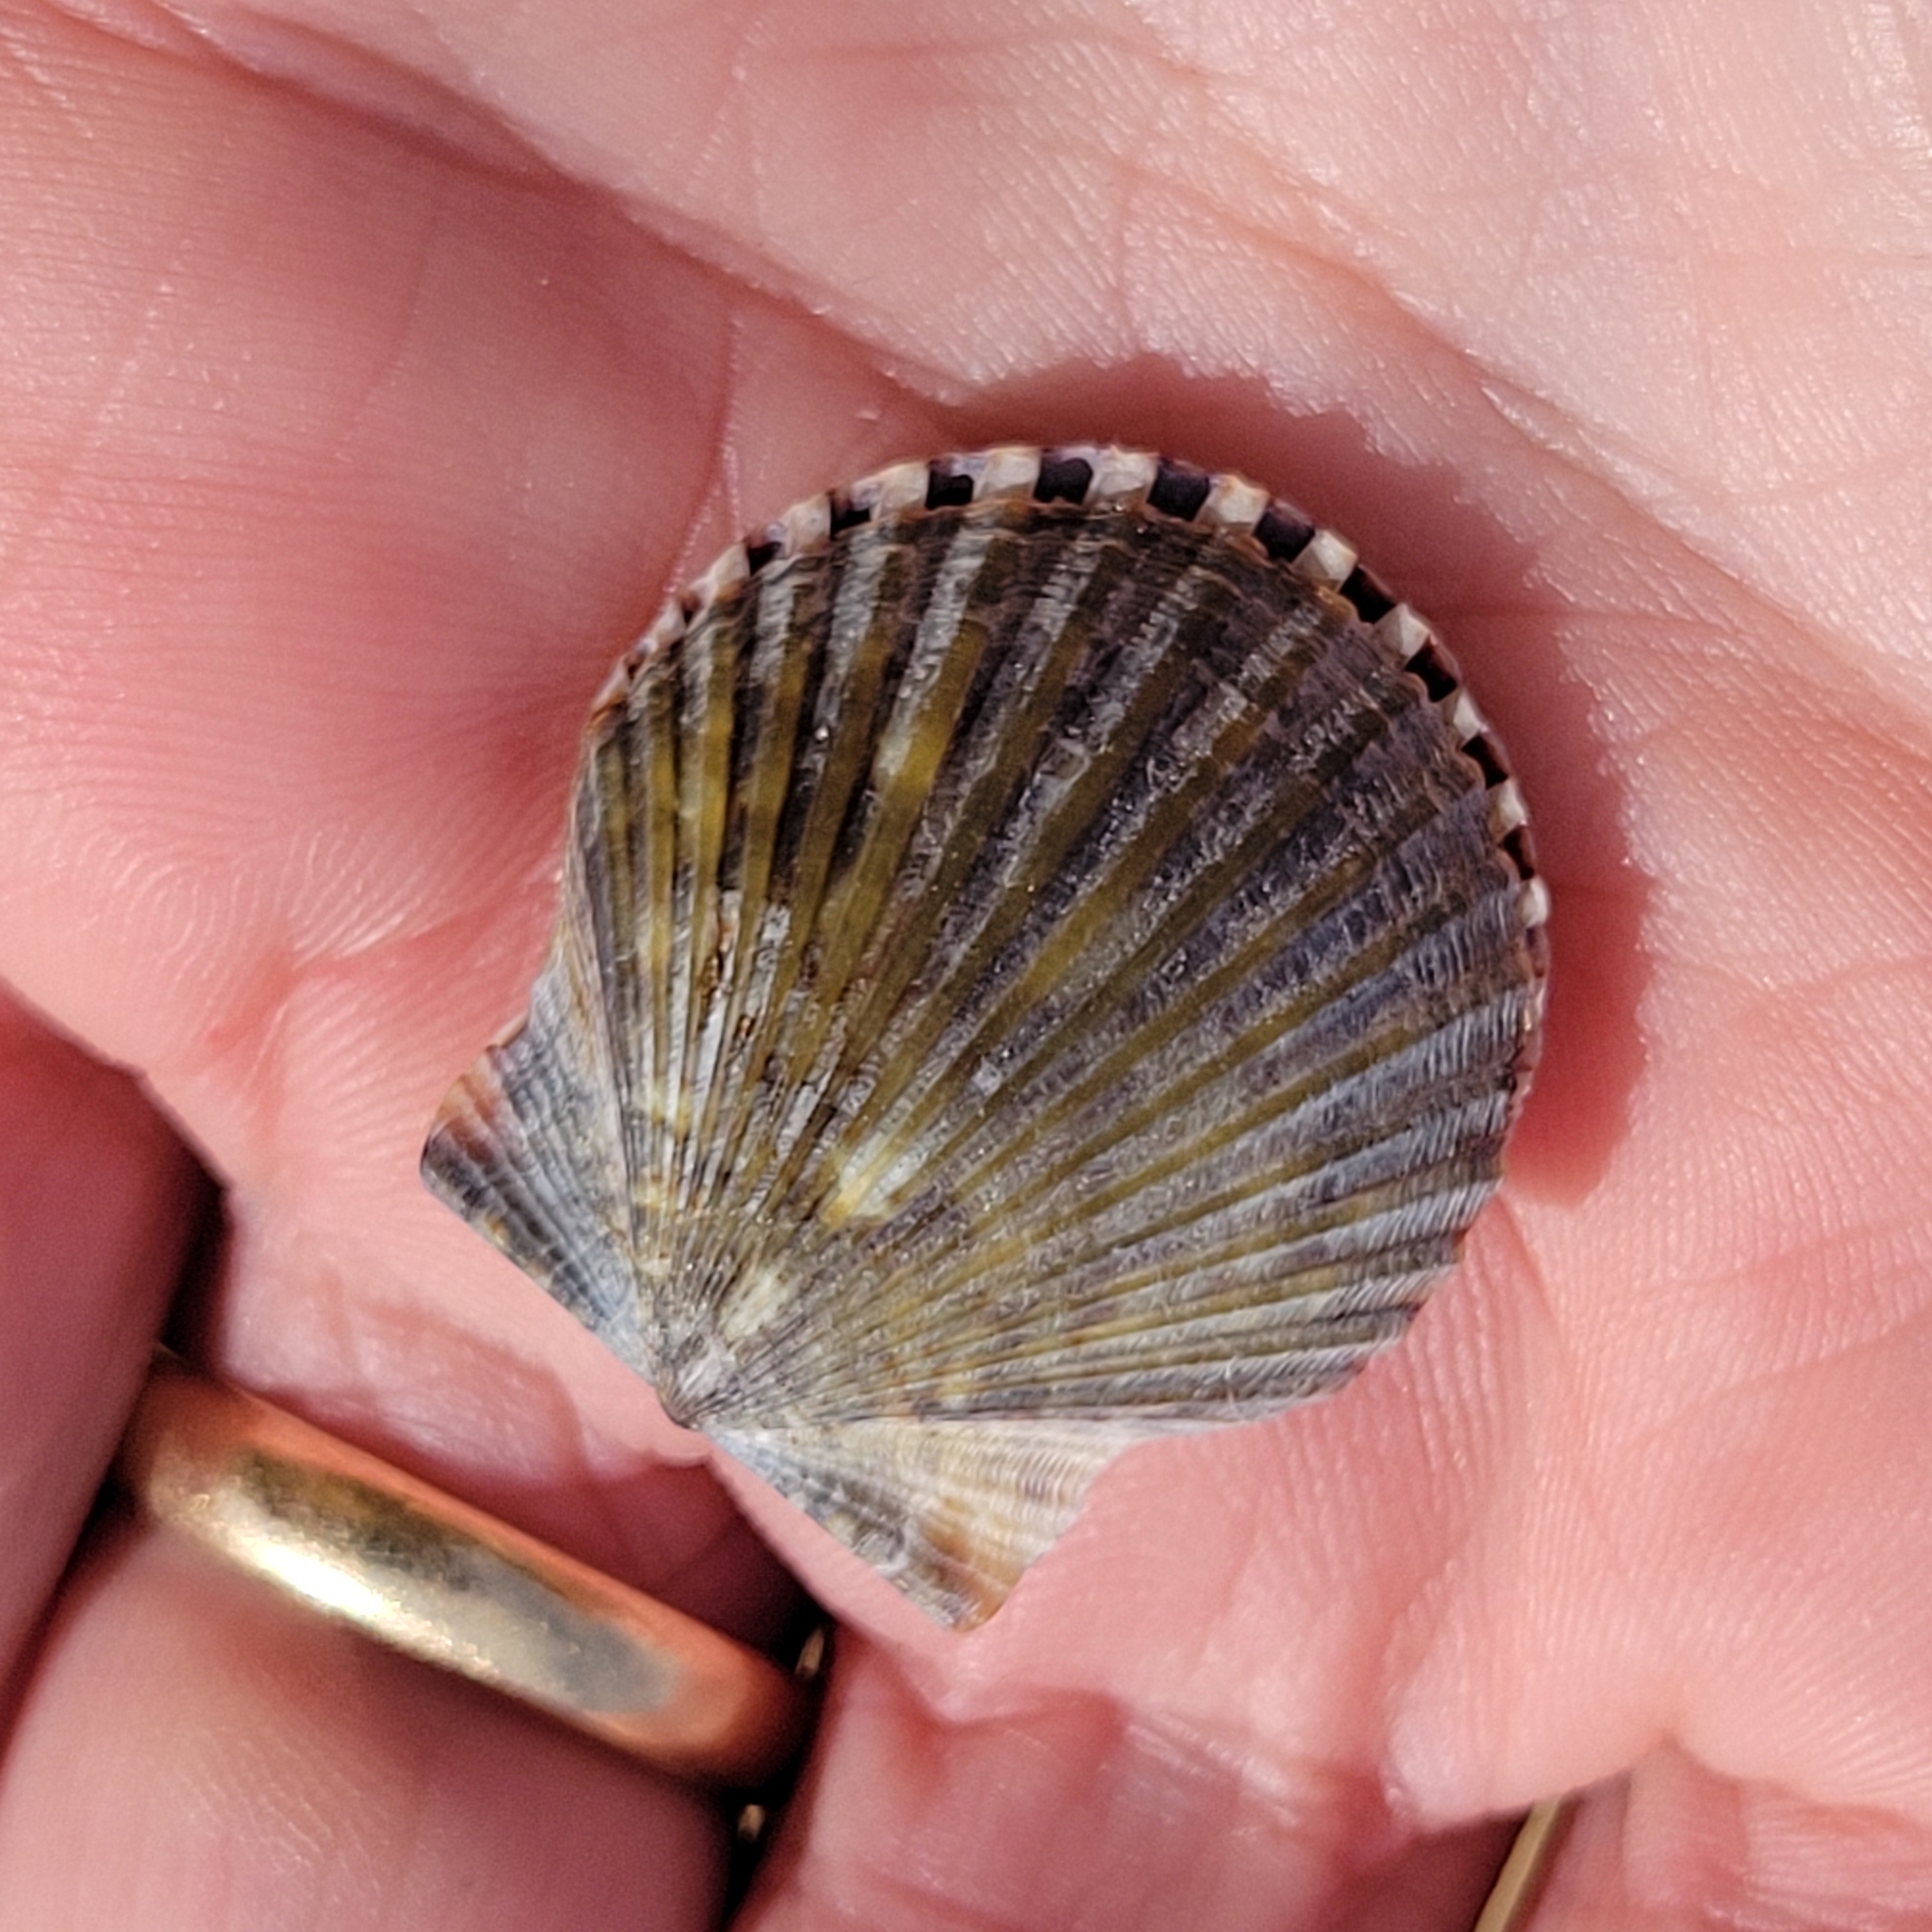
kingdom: Animalia
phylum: Mollusca
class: Bivalvia
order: Pectinida
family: Pectinidae
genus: Argopecten
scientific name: Argopecten irradians
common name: Atlantic bay scallop
